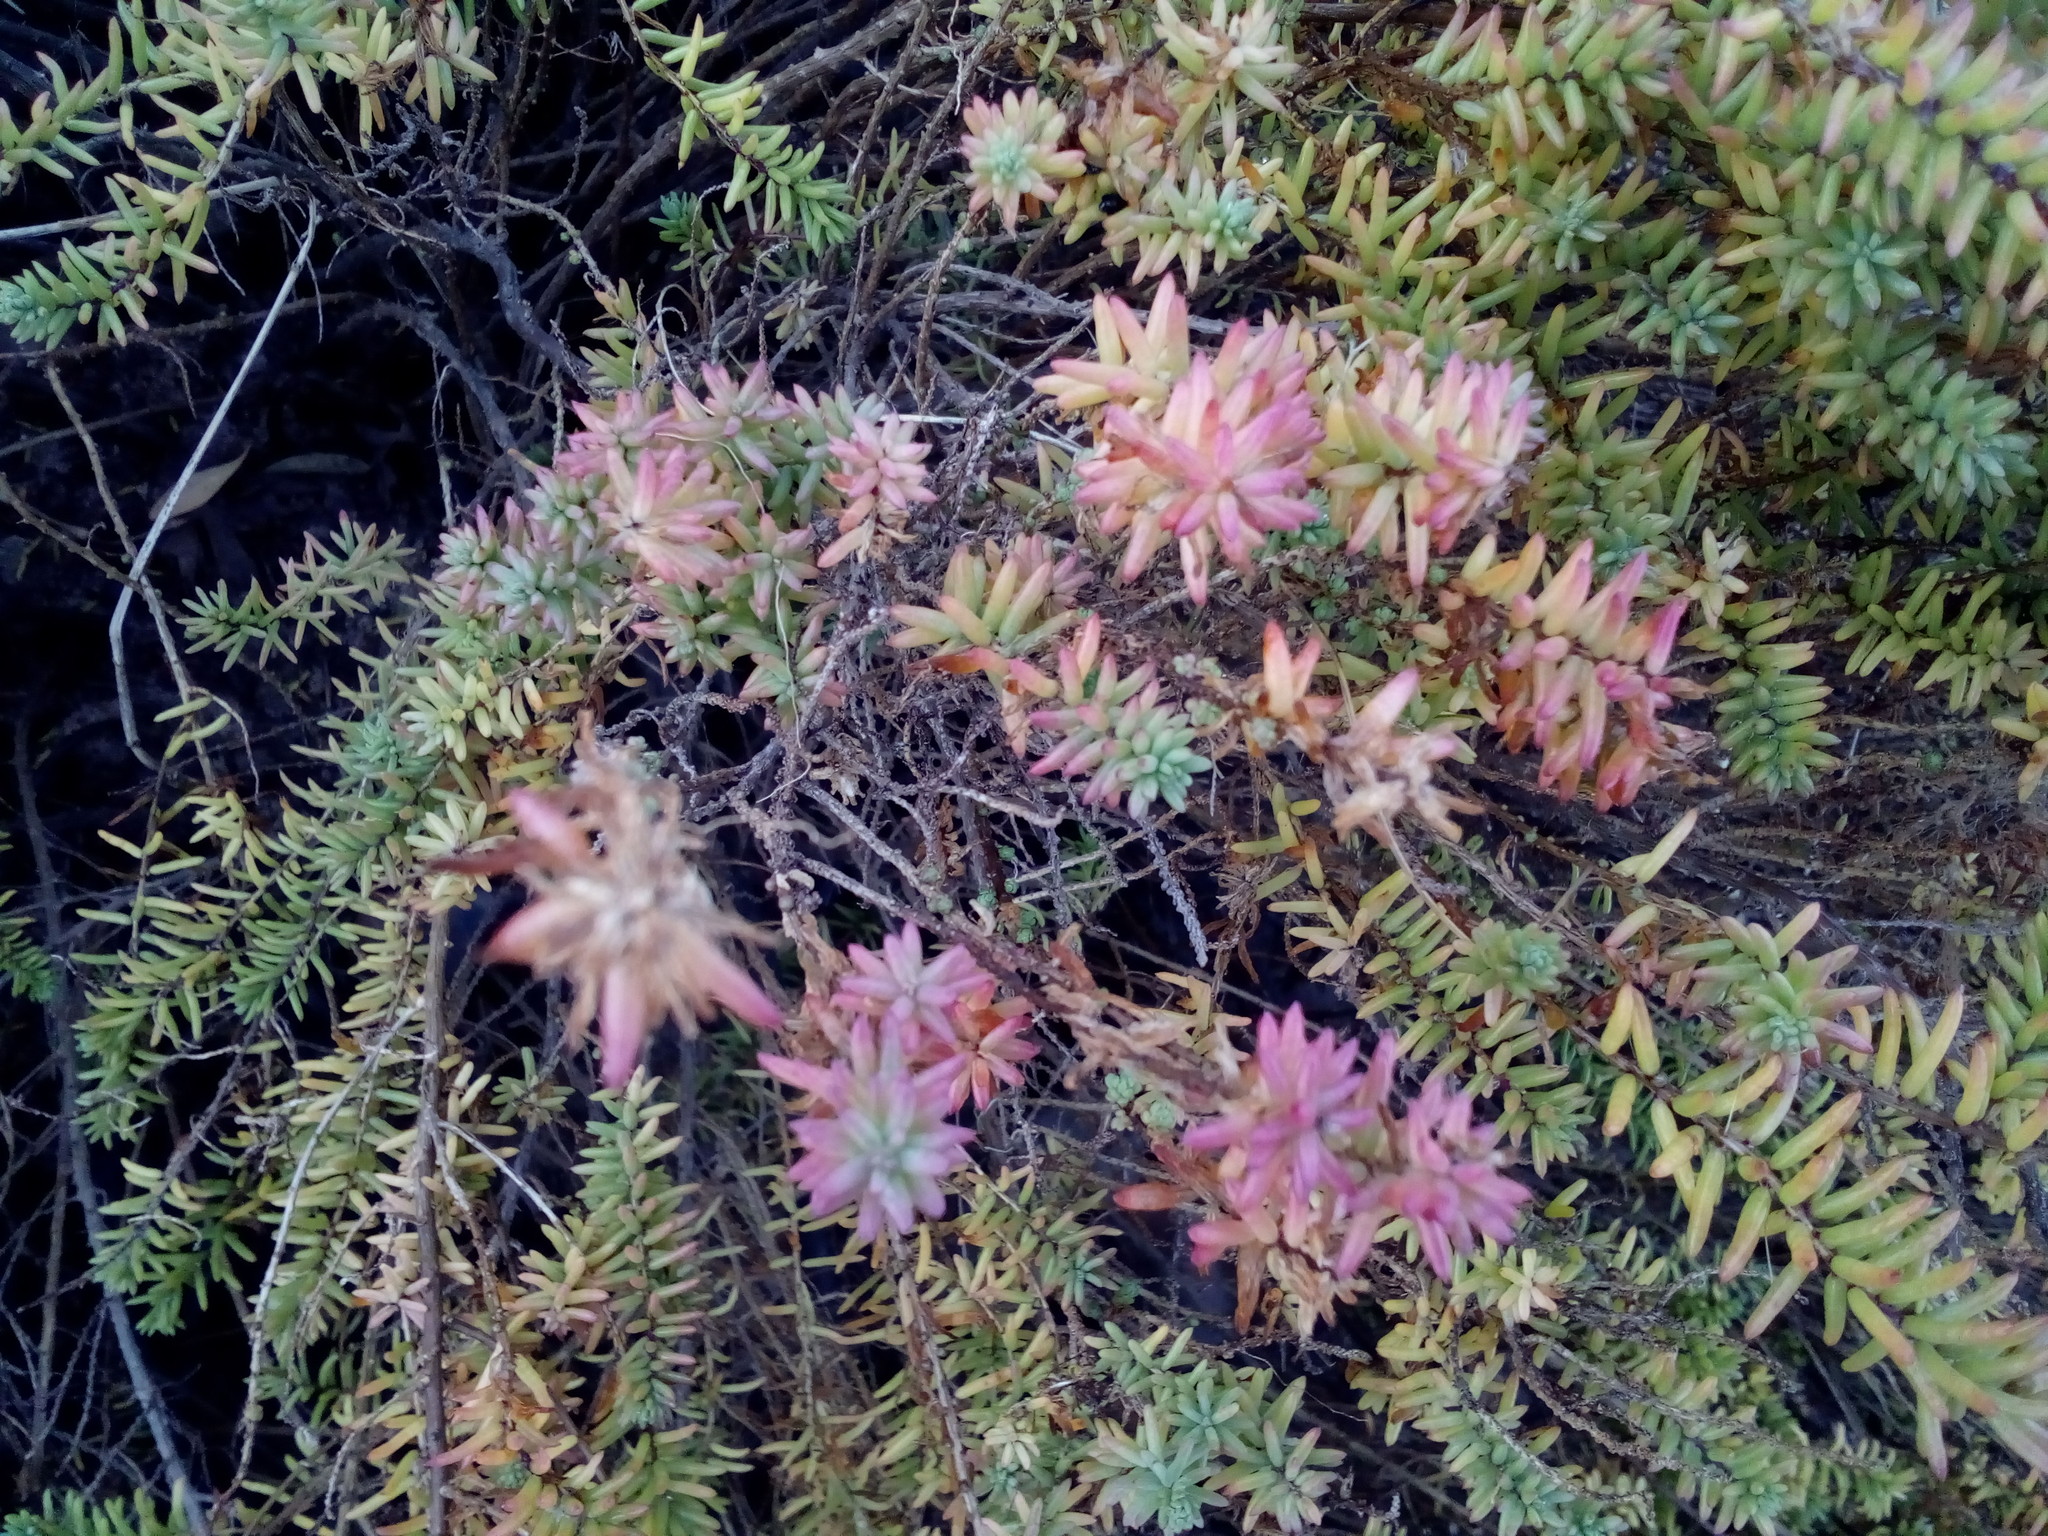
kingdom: Plantae
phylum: Tracheophyta
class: Magnoliopsida
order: Caryophyllales
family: Amaranthaceae
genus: Suaeda
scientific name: Suaeda vera
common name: Shrubby sea-blite
